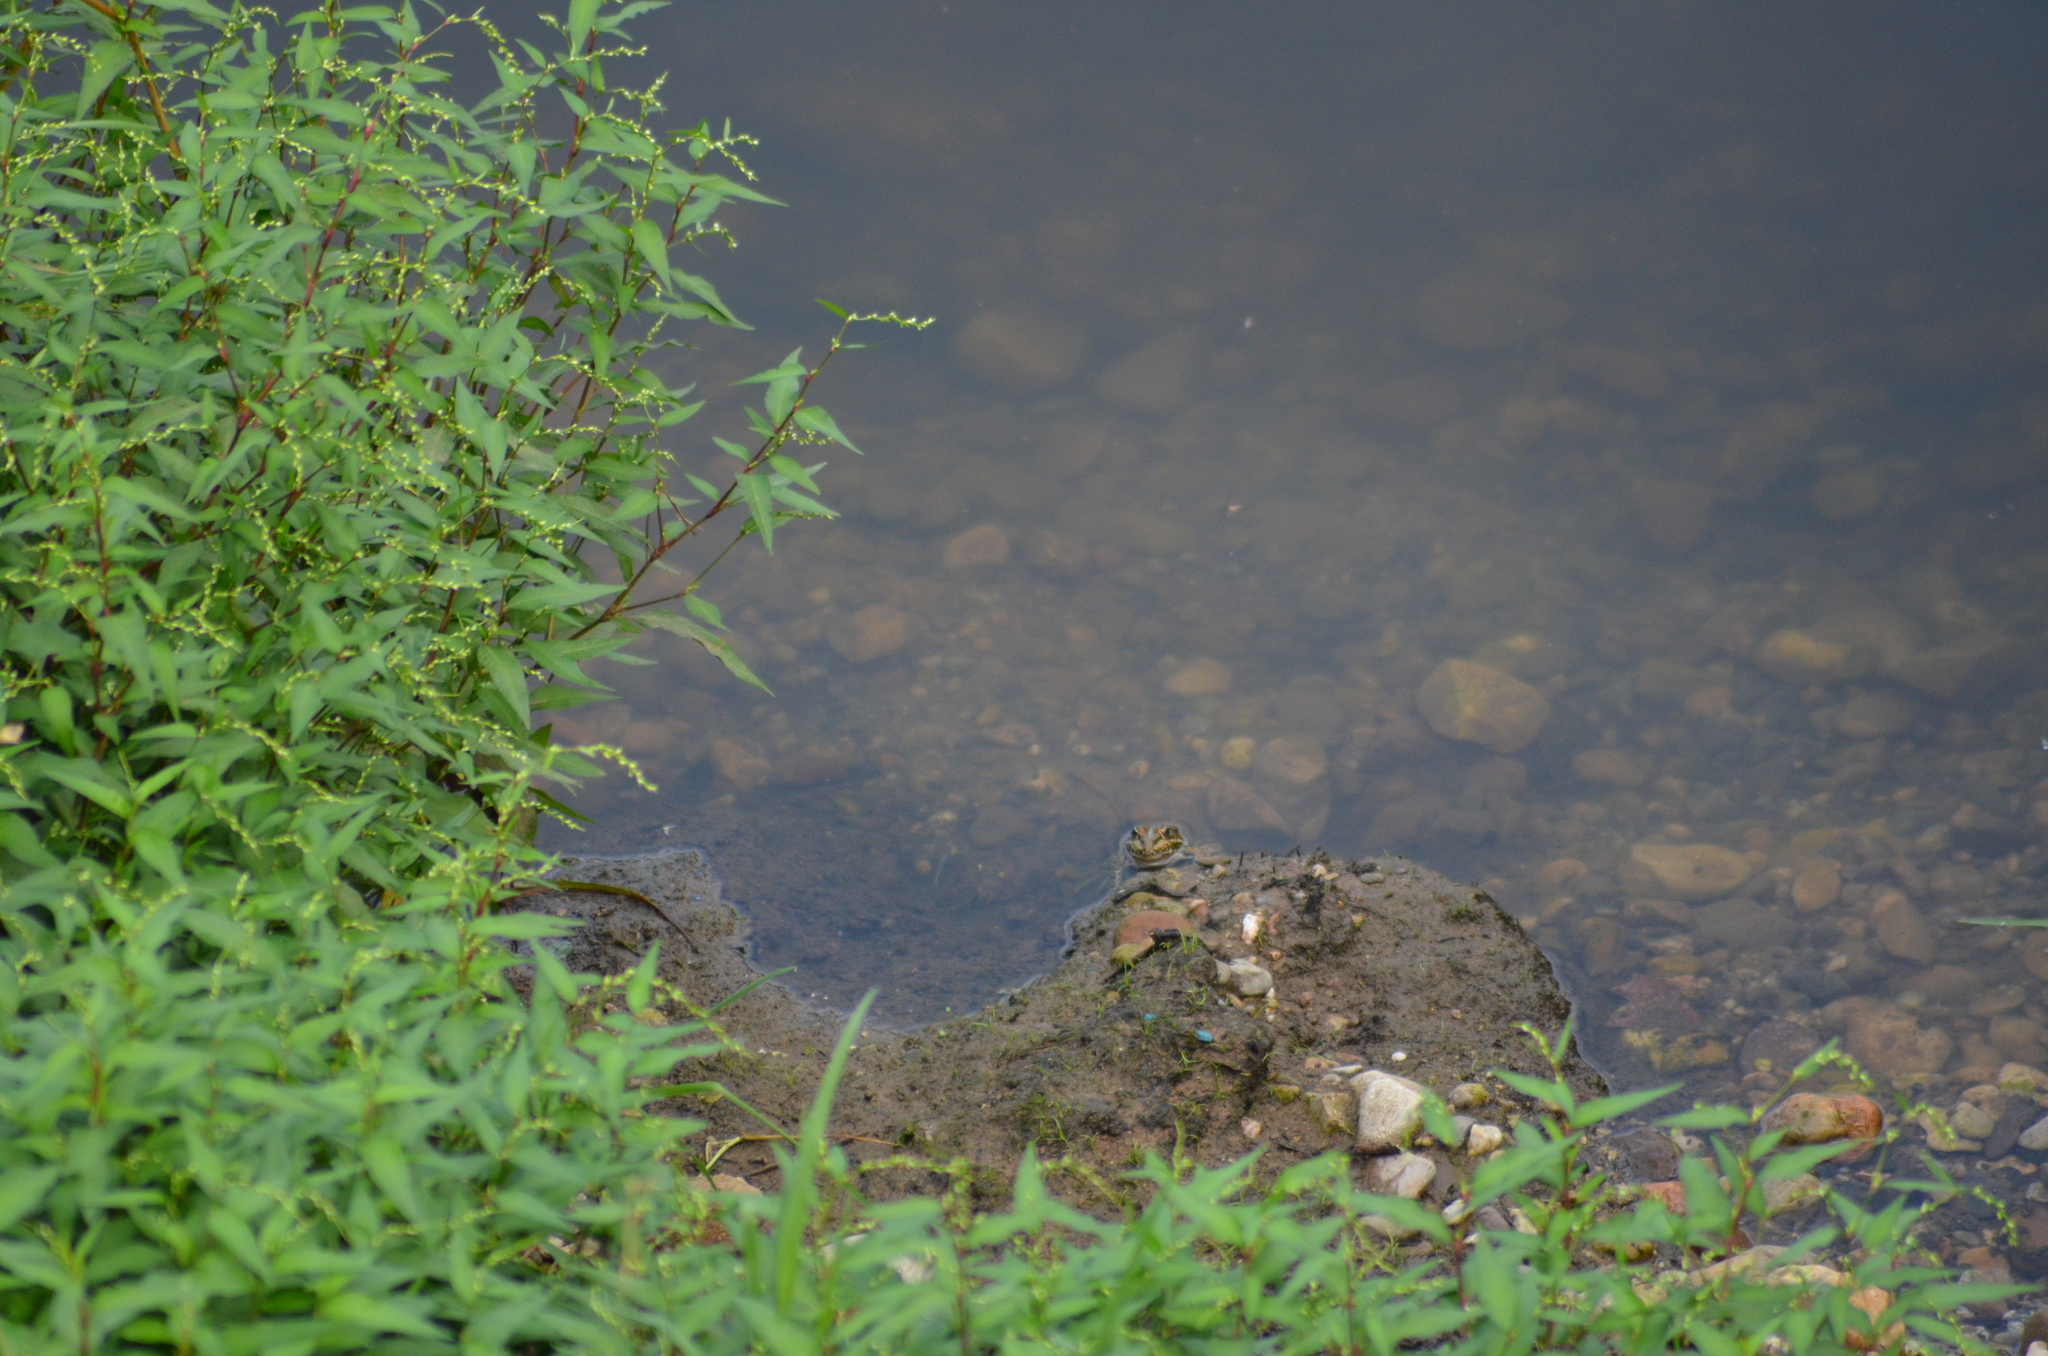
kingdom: Animalia
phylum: Chordata
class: Amphibia
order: Anura
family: Ranidae
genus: Pelophylax
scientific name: Pelophylax perezi
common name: Perez's frog
